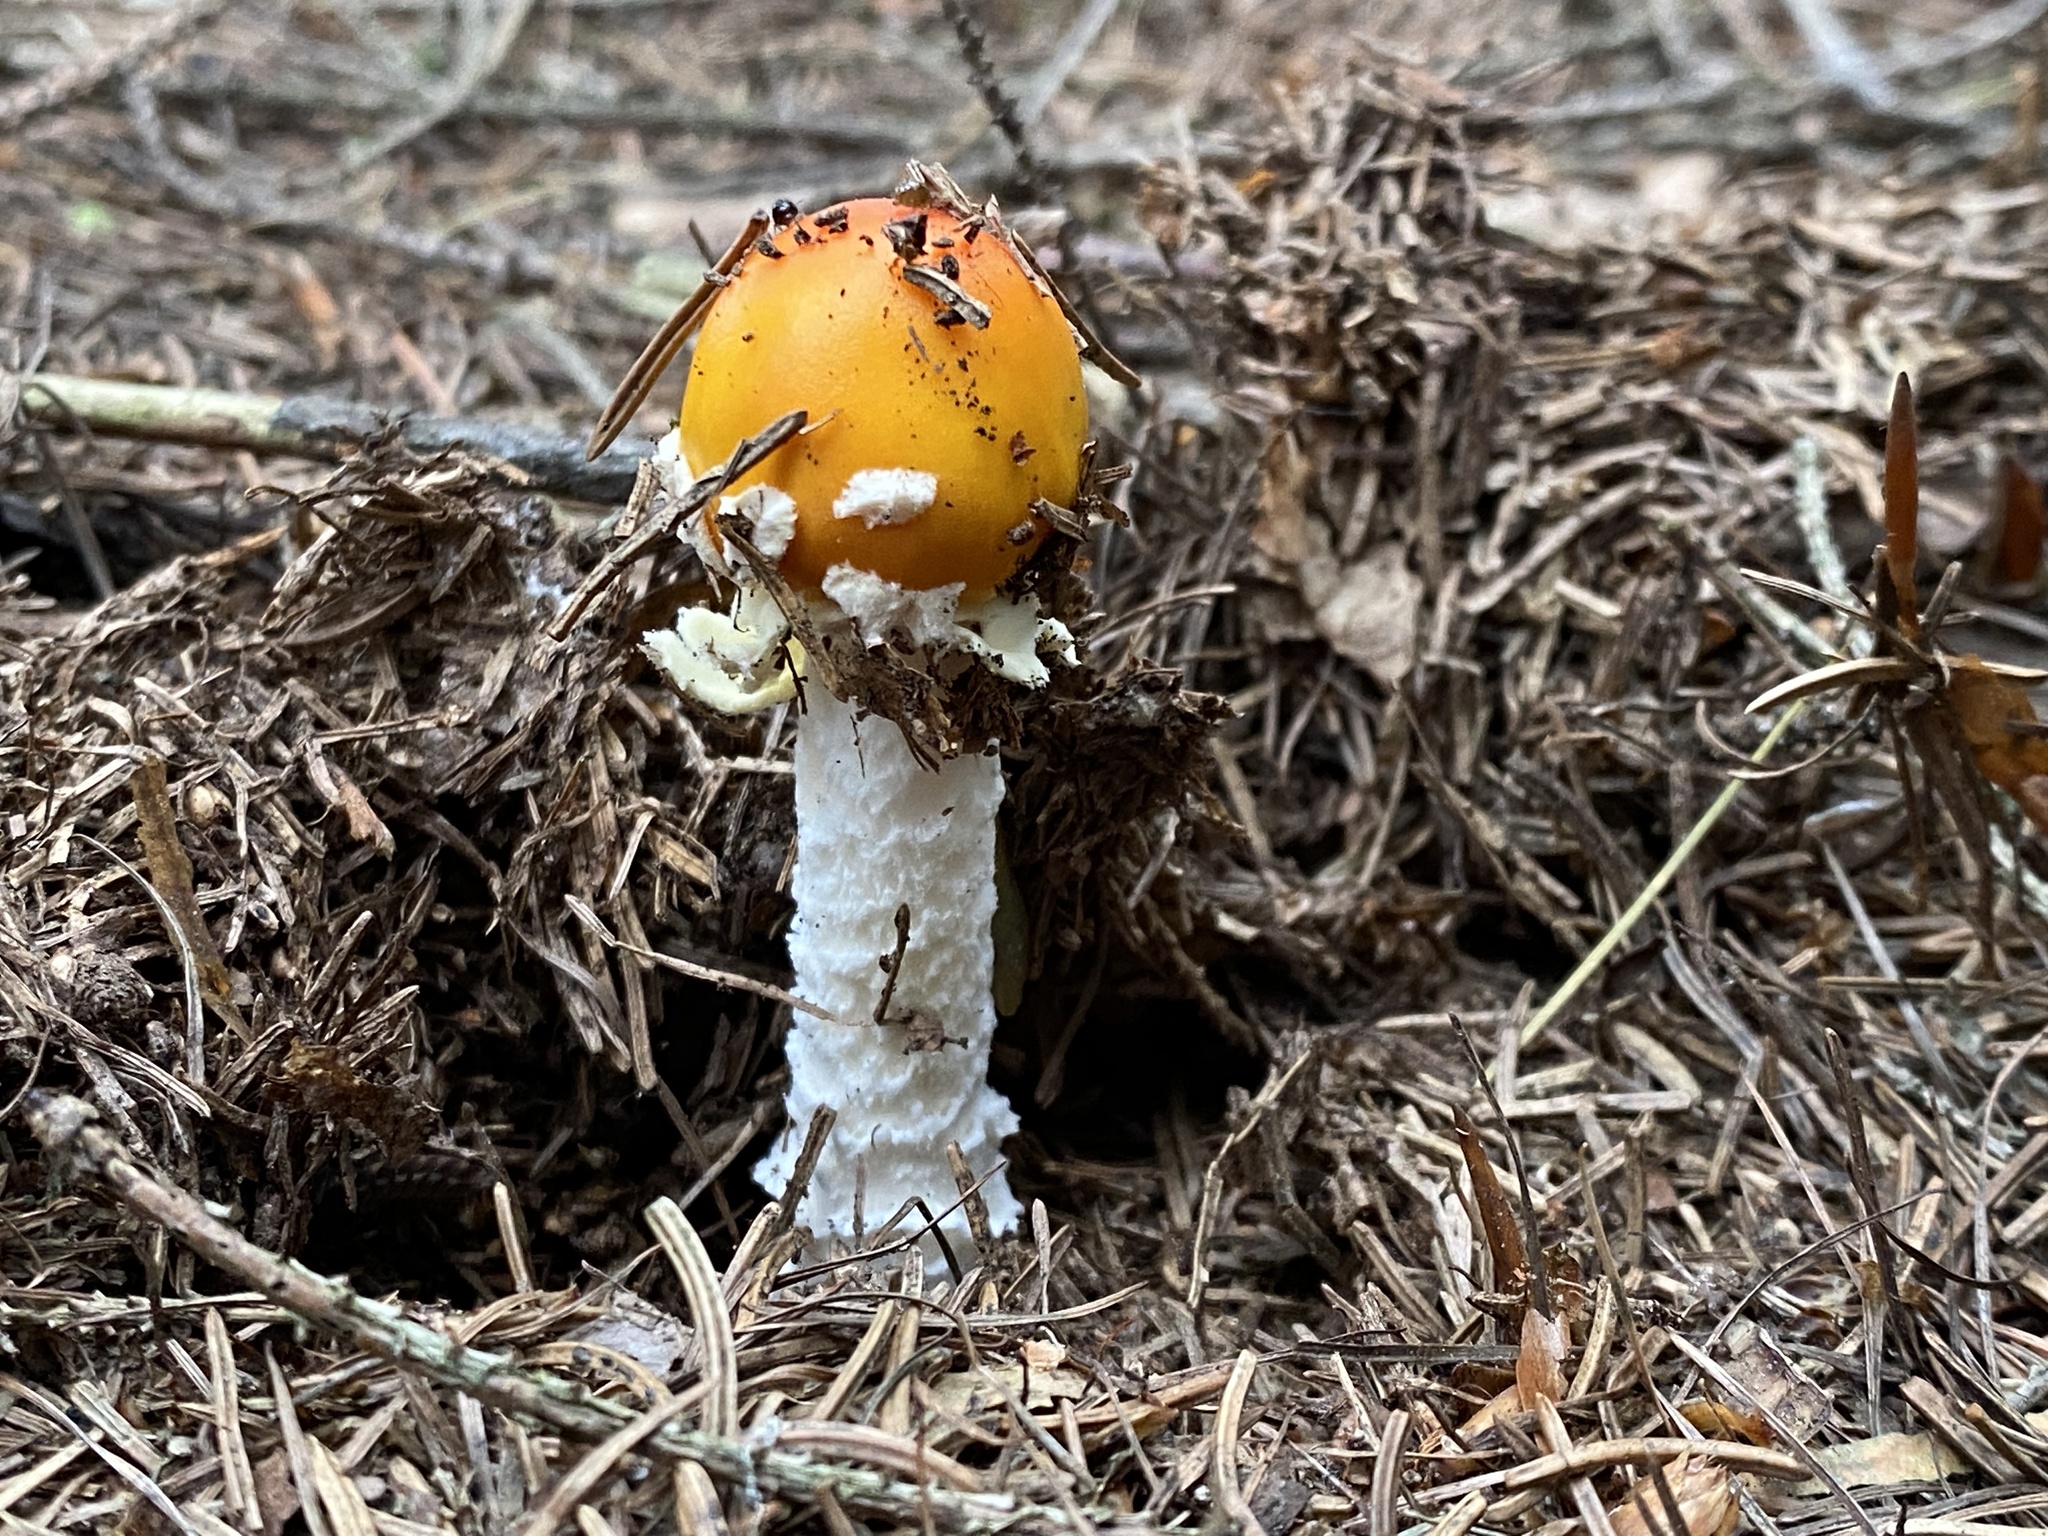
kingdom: Fungi
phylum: Basidiomycota
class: Agaricomycetes
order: Agaricales
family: Amanitaceae
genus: Amanita
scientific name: Amanita muscaria
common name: Fly agaric
